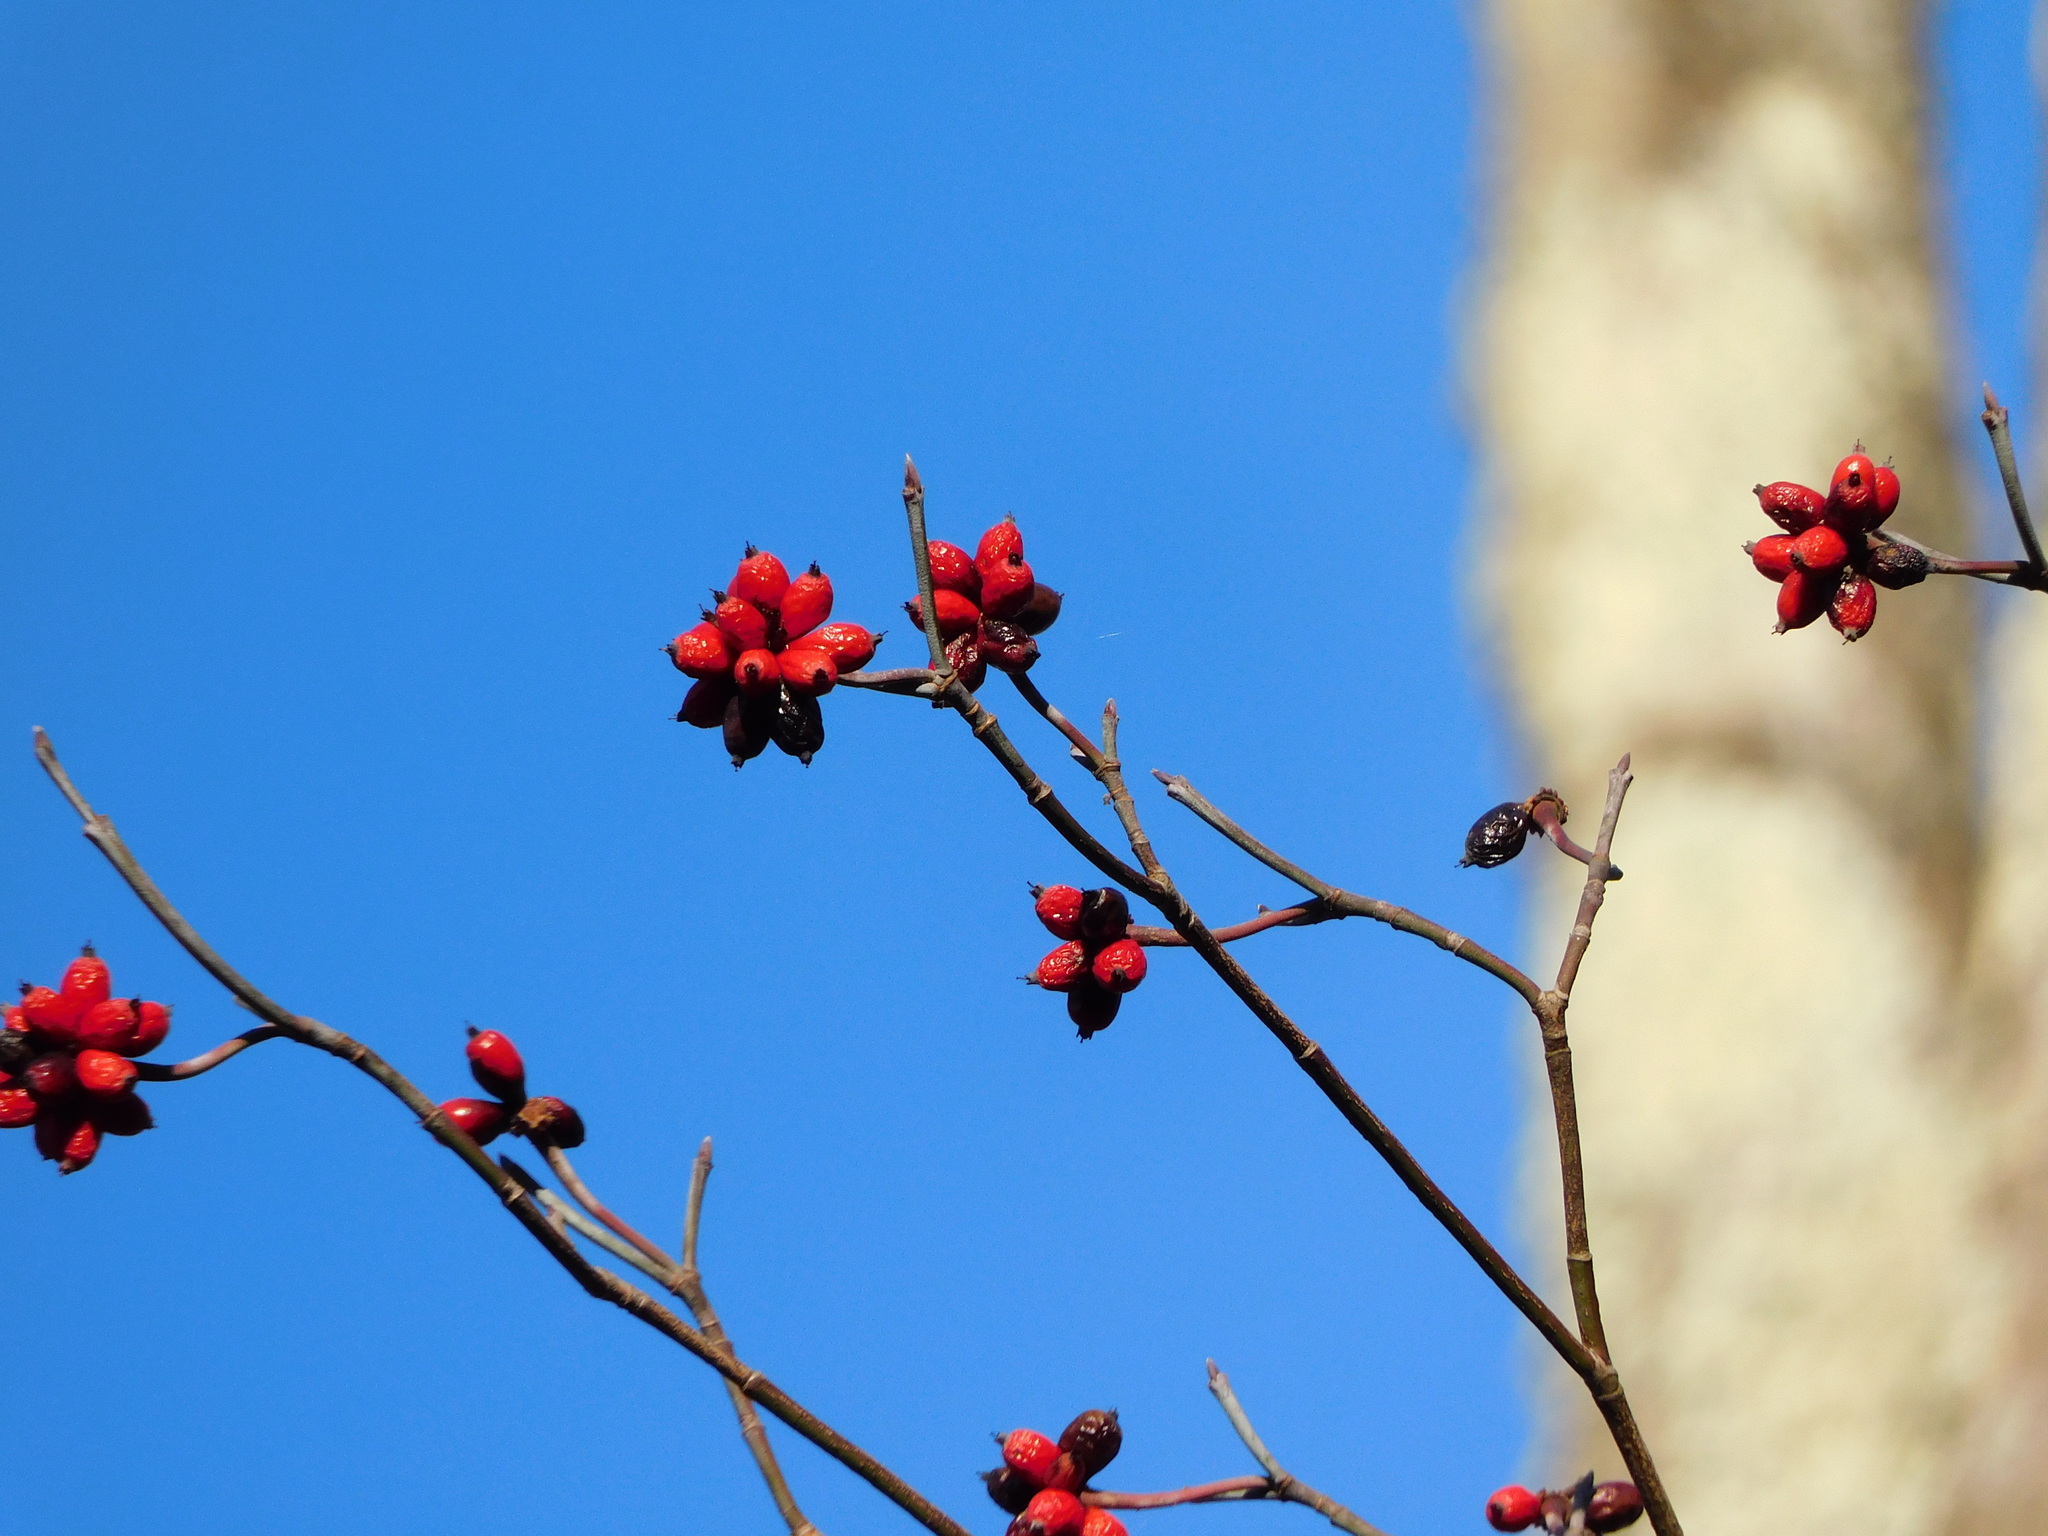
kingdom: Plantae
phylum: Tracheophyta
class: Magnoliopsida
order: Cornales
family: Cornaceae
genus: Cornus
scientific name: Cornus florida
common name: Flowering dogwood
